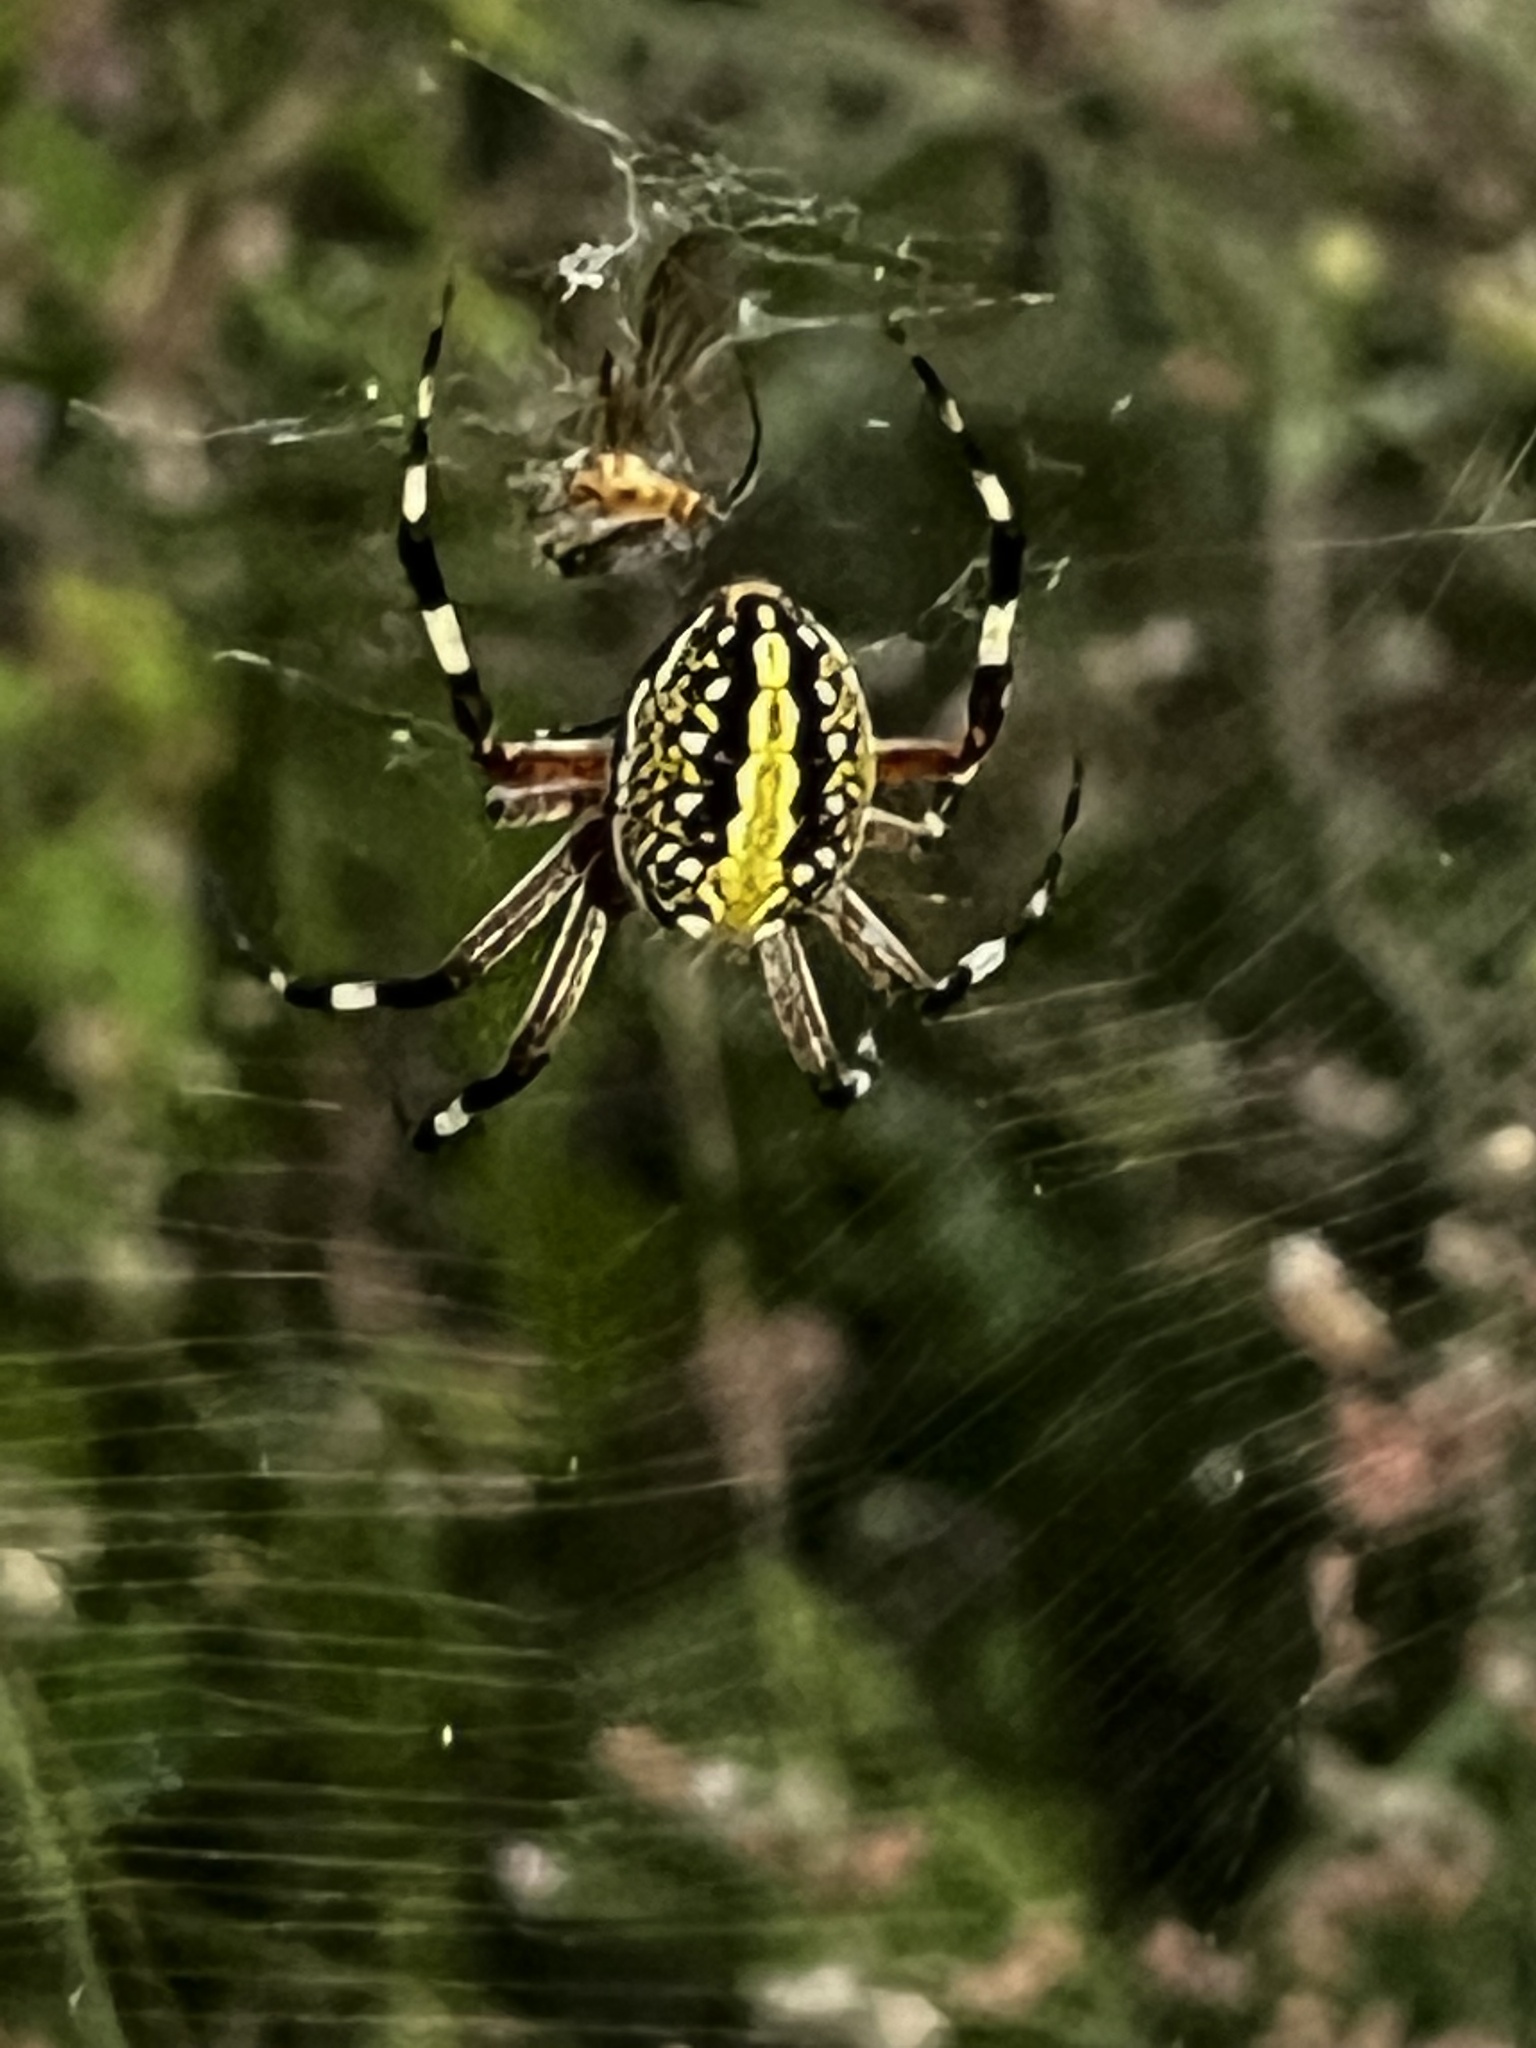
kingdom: Animalia
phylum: Arthropoda
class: Arachnida
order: Araneae
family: Araneidae
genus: Neoscona
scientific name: Neoscona oaxacensis
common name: Orb weavers
